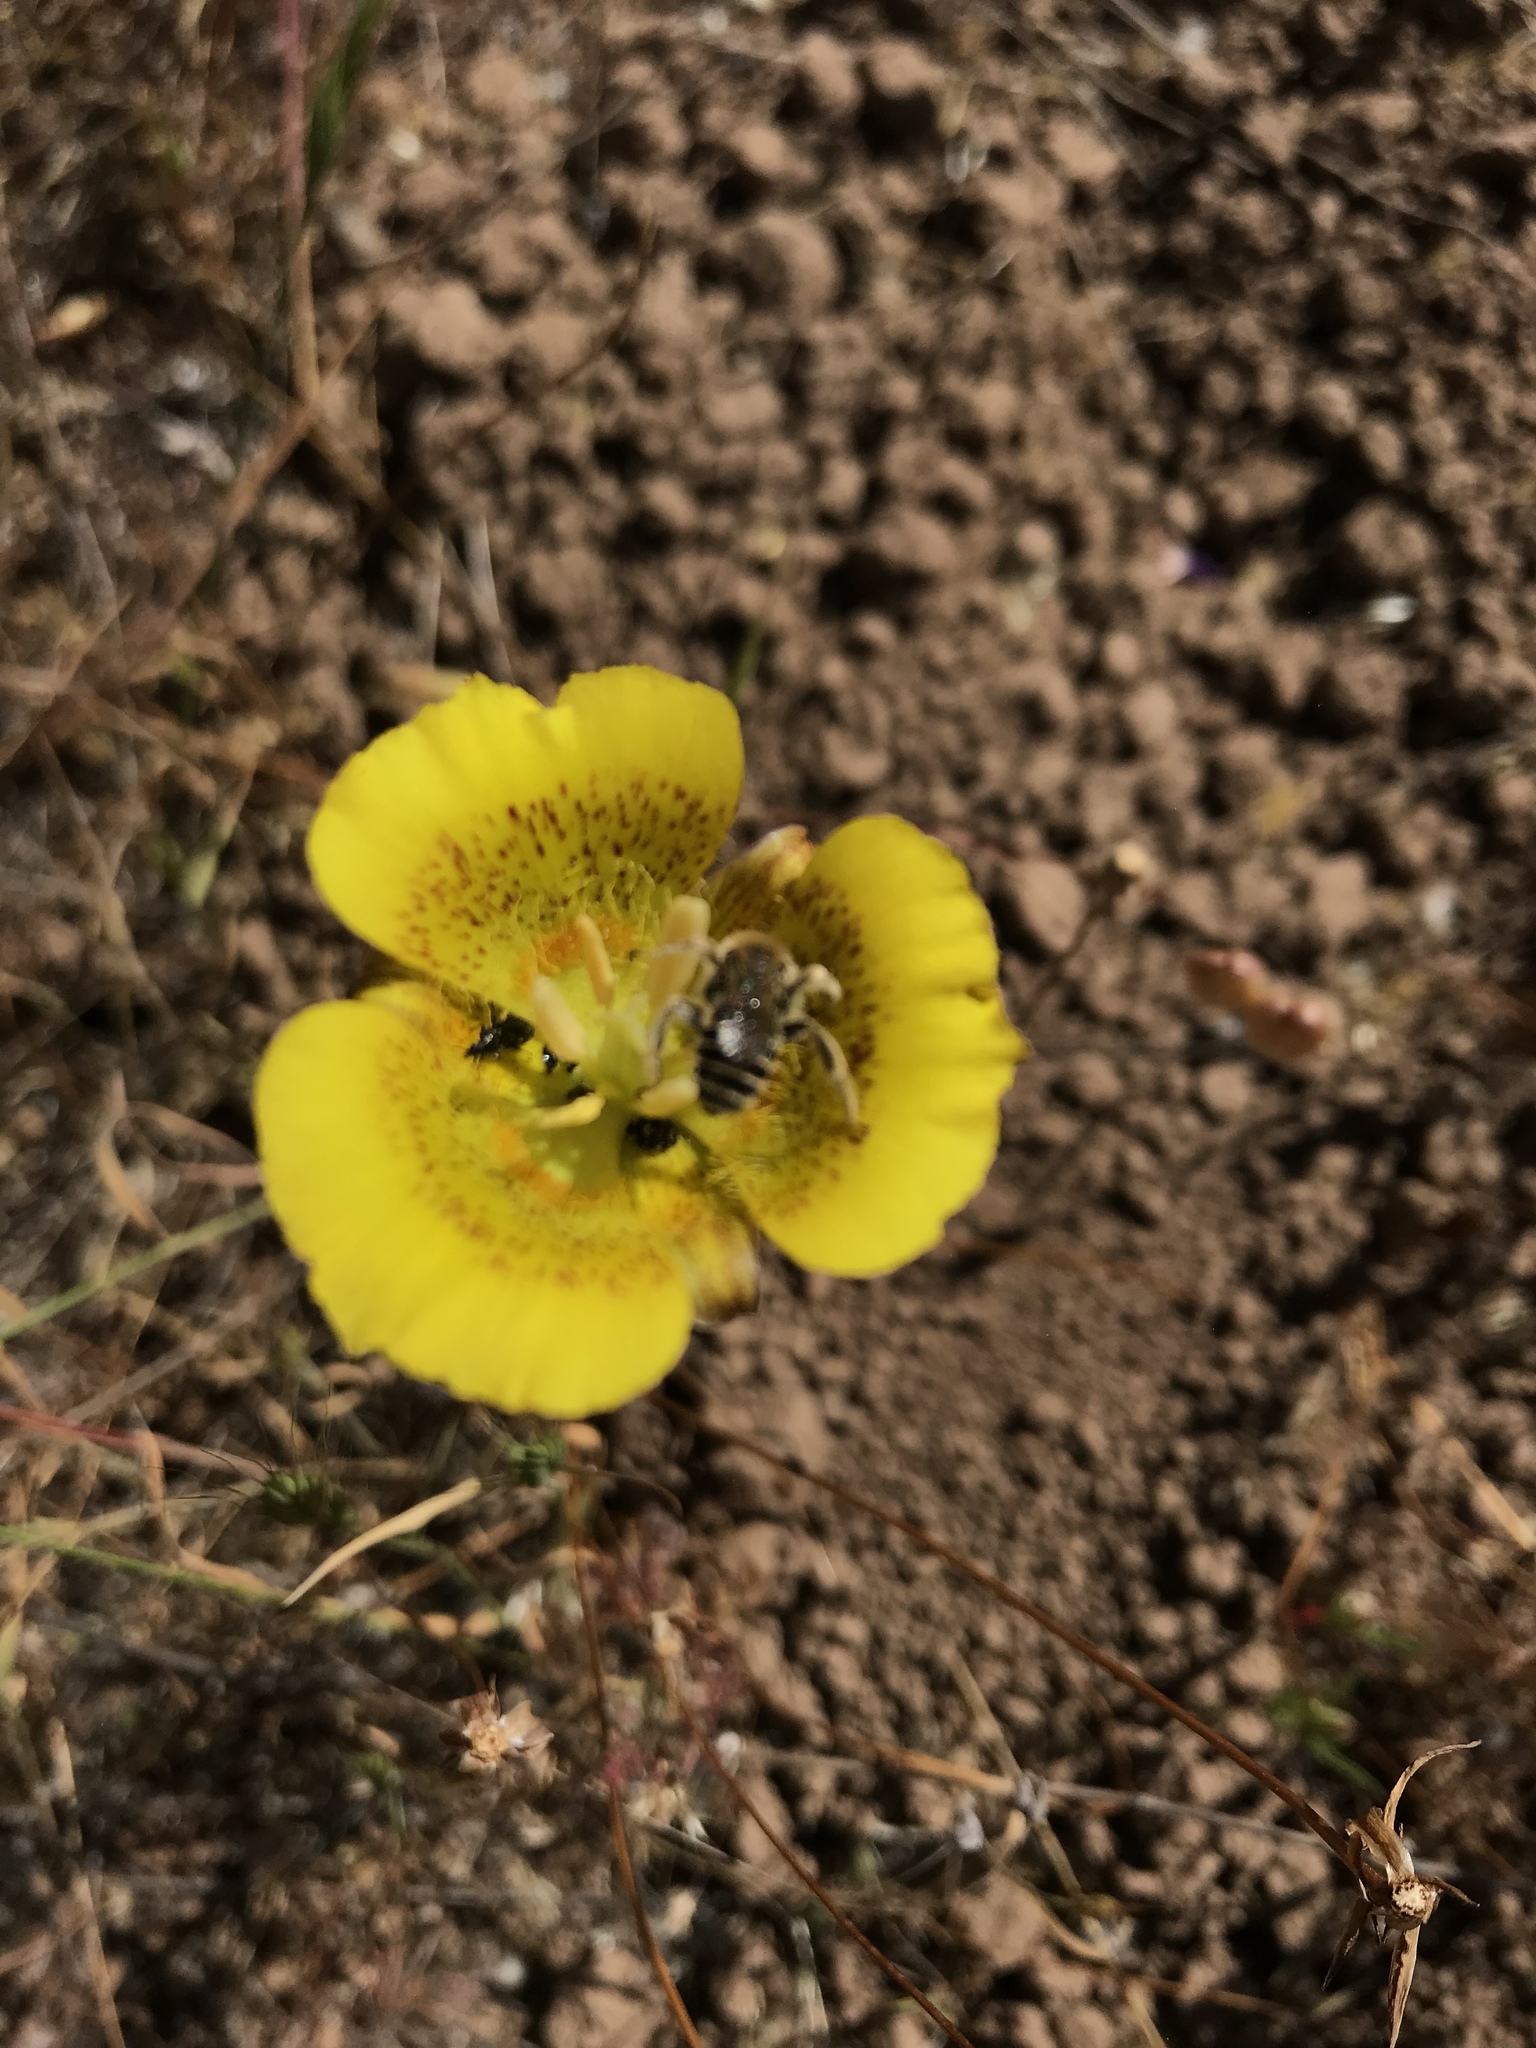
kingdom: Plantae
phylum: Tracheophyta
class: Liliopsida
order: Liliales
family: Liliaceae
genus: Calochortus
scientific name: Calochortus luteus
